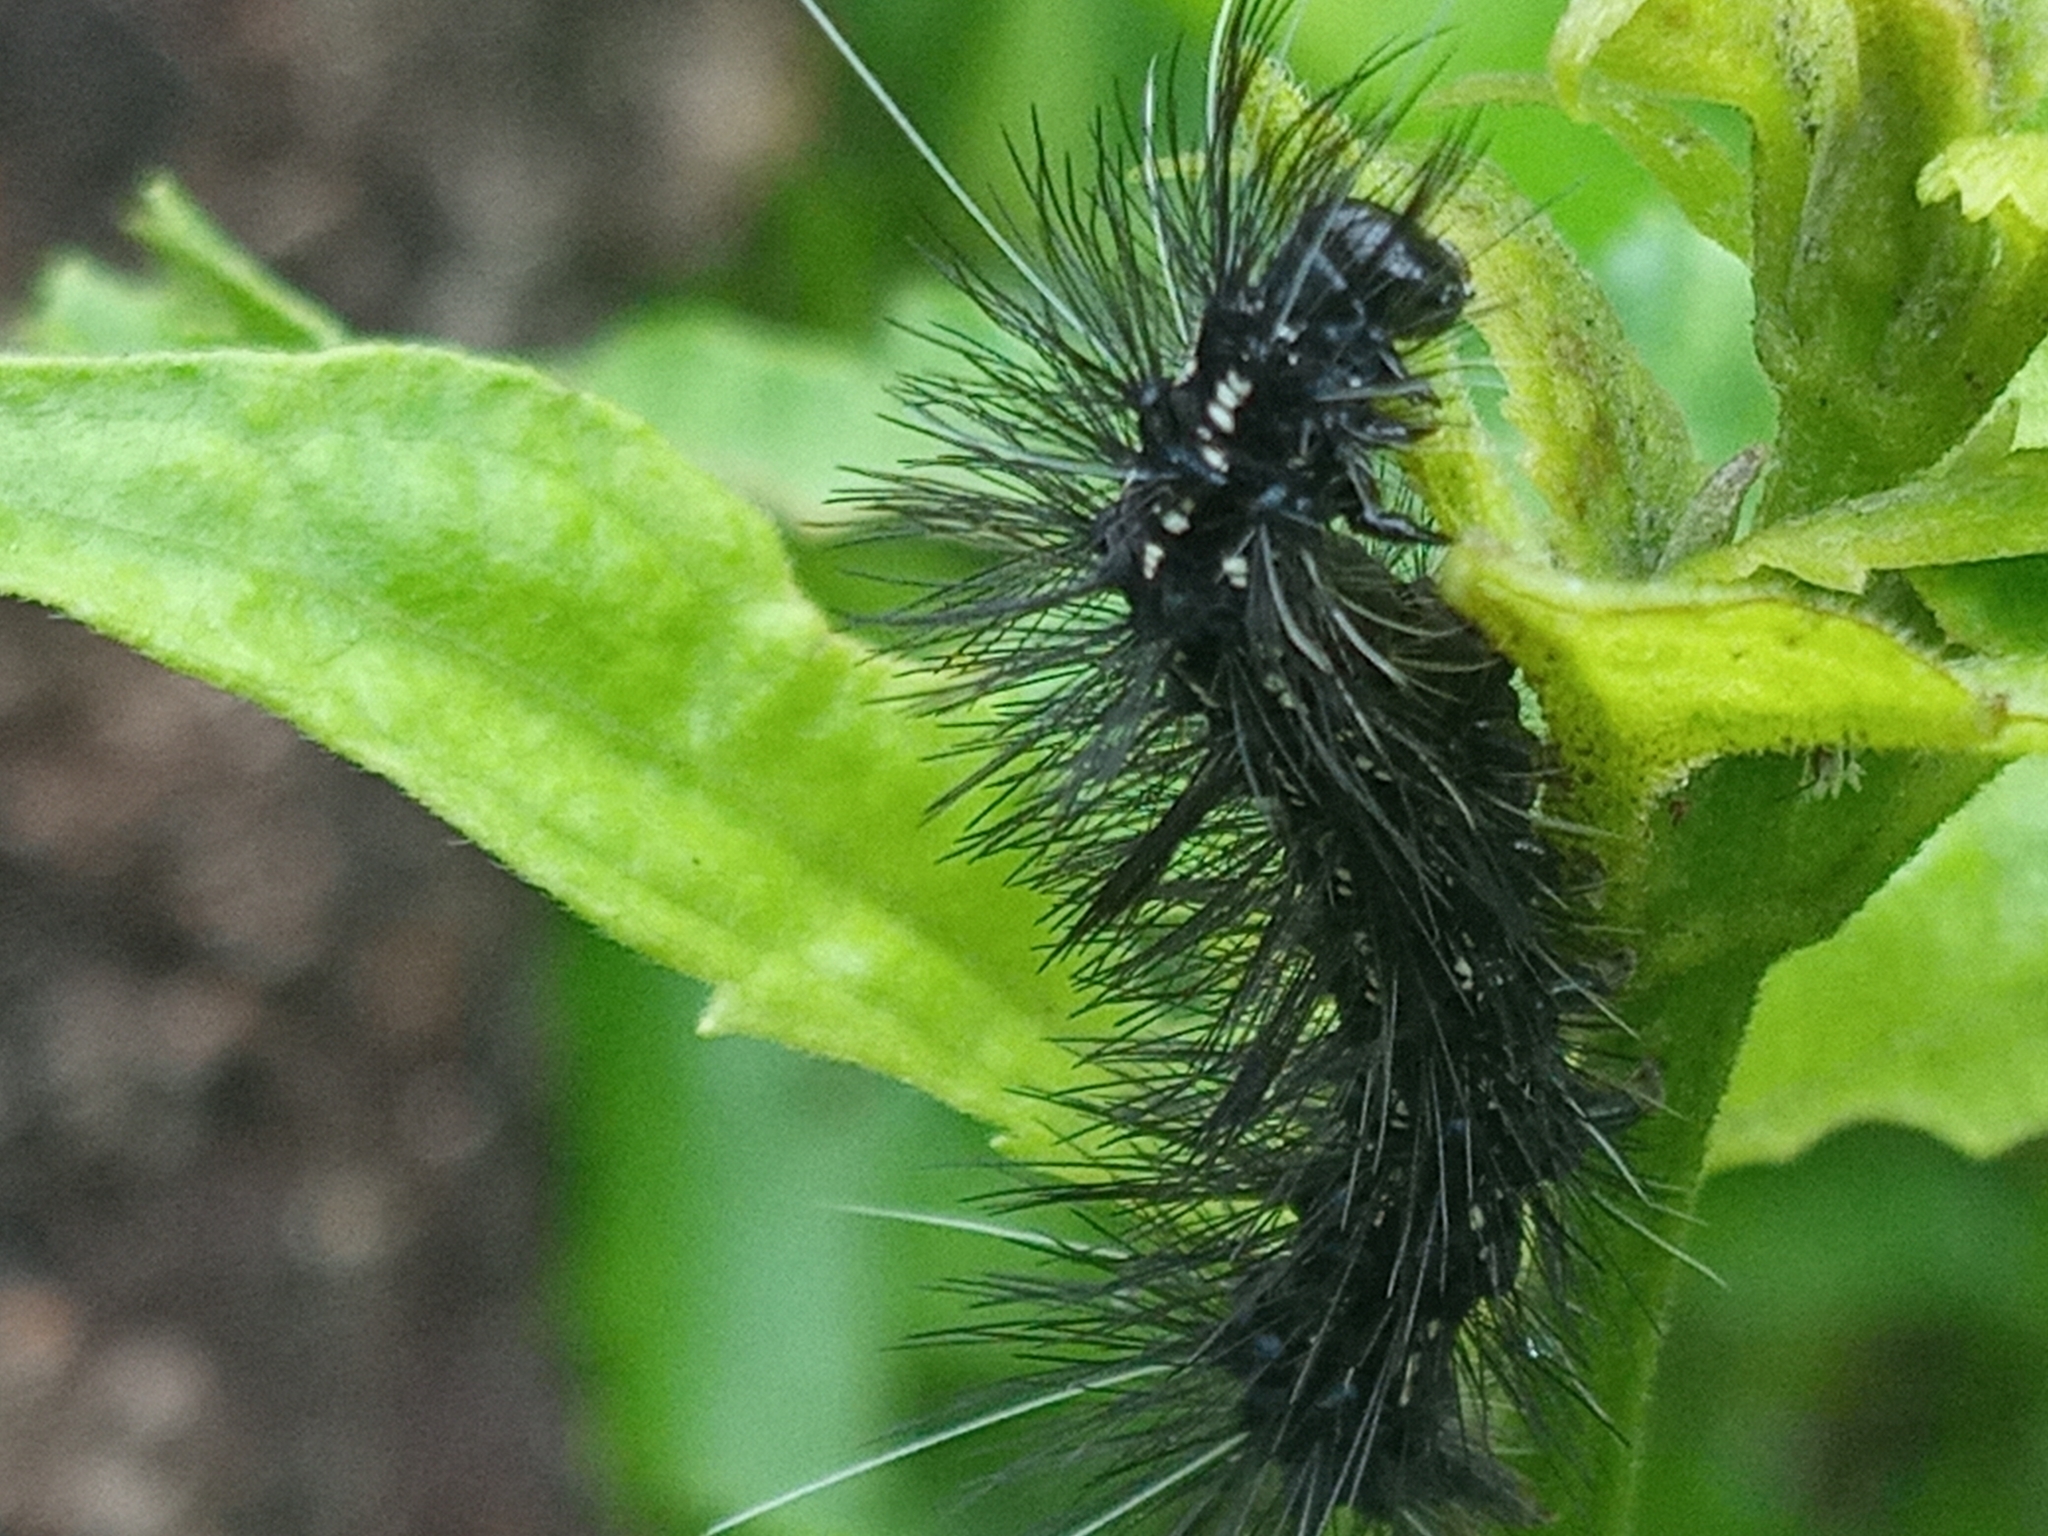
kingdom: Animalia
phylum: Arthropoda
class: Insecta
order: Lepidoptera
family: Erebidae
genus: Pareuchaetes
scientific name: Pareuchaetes
